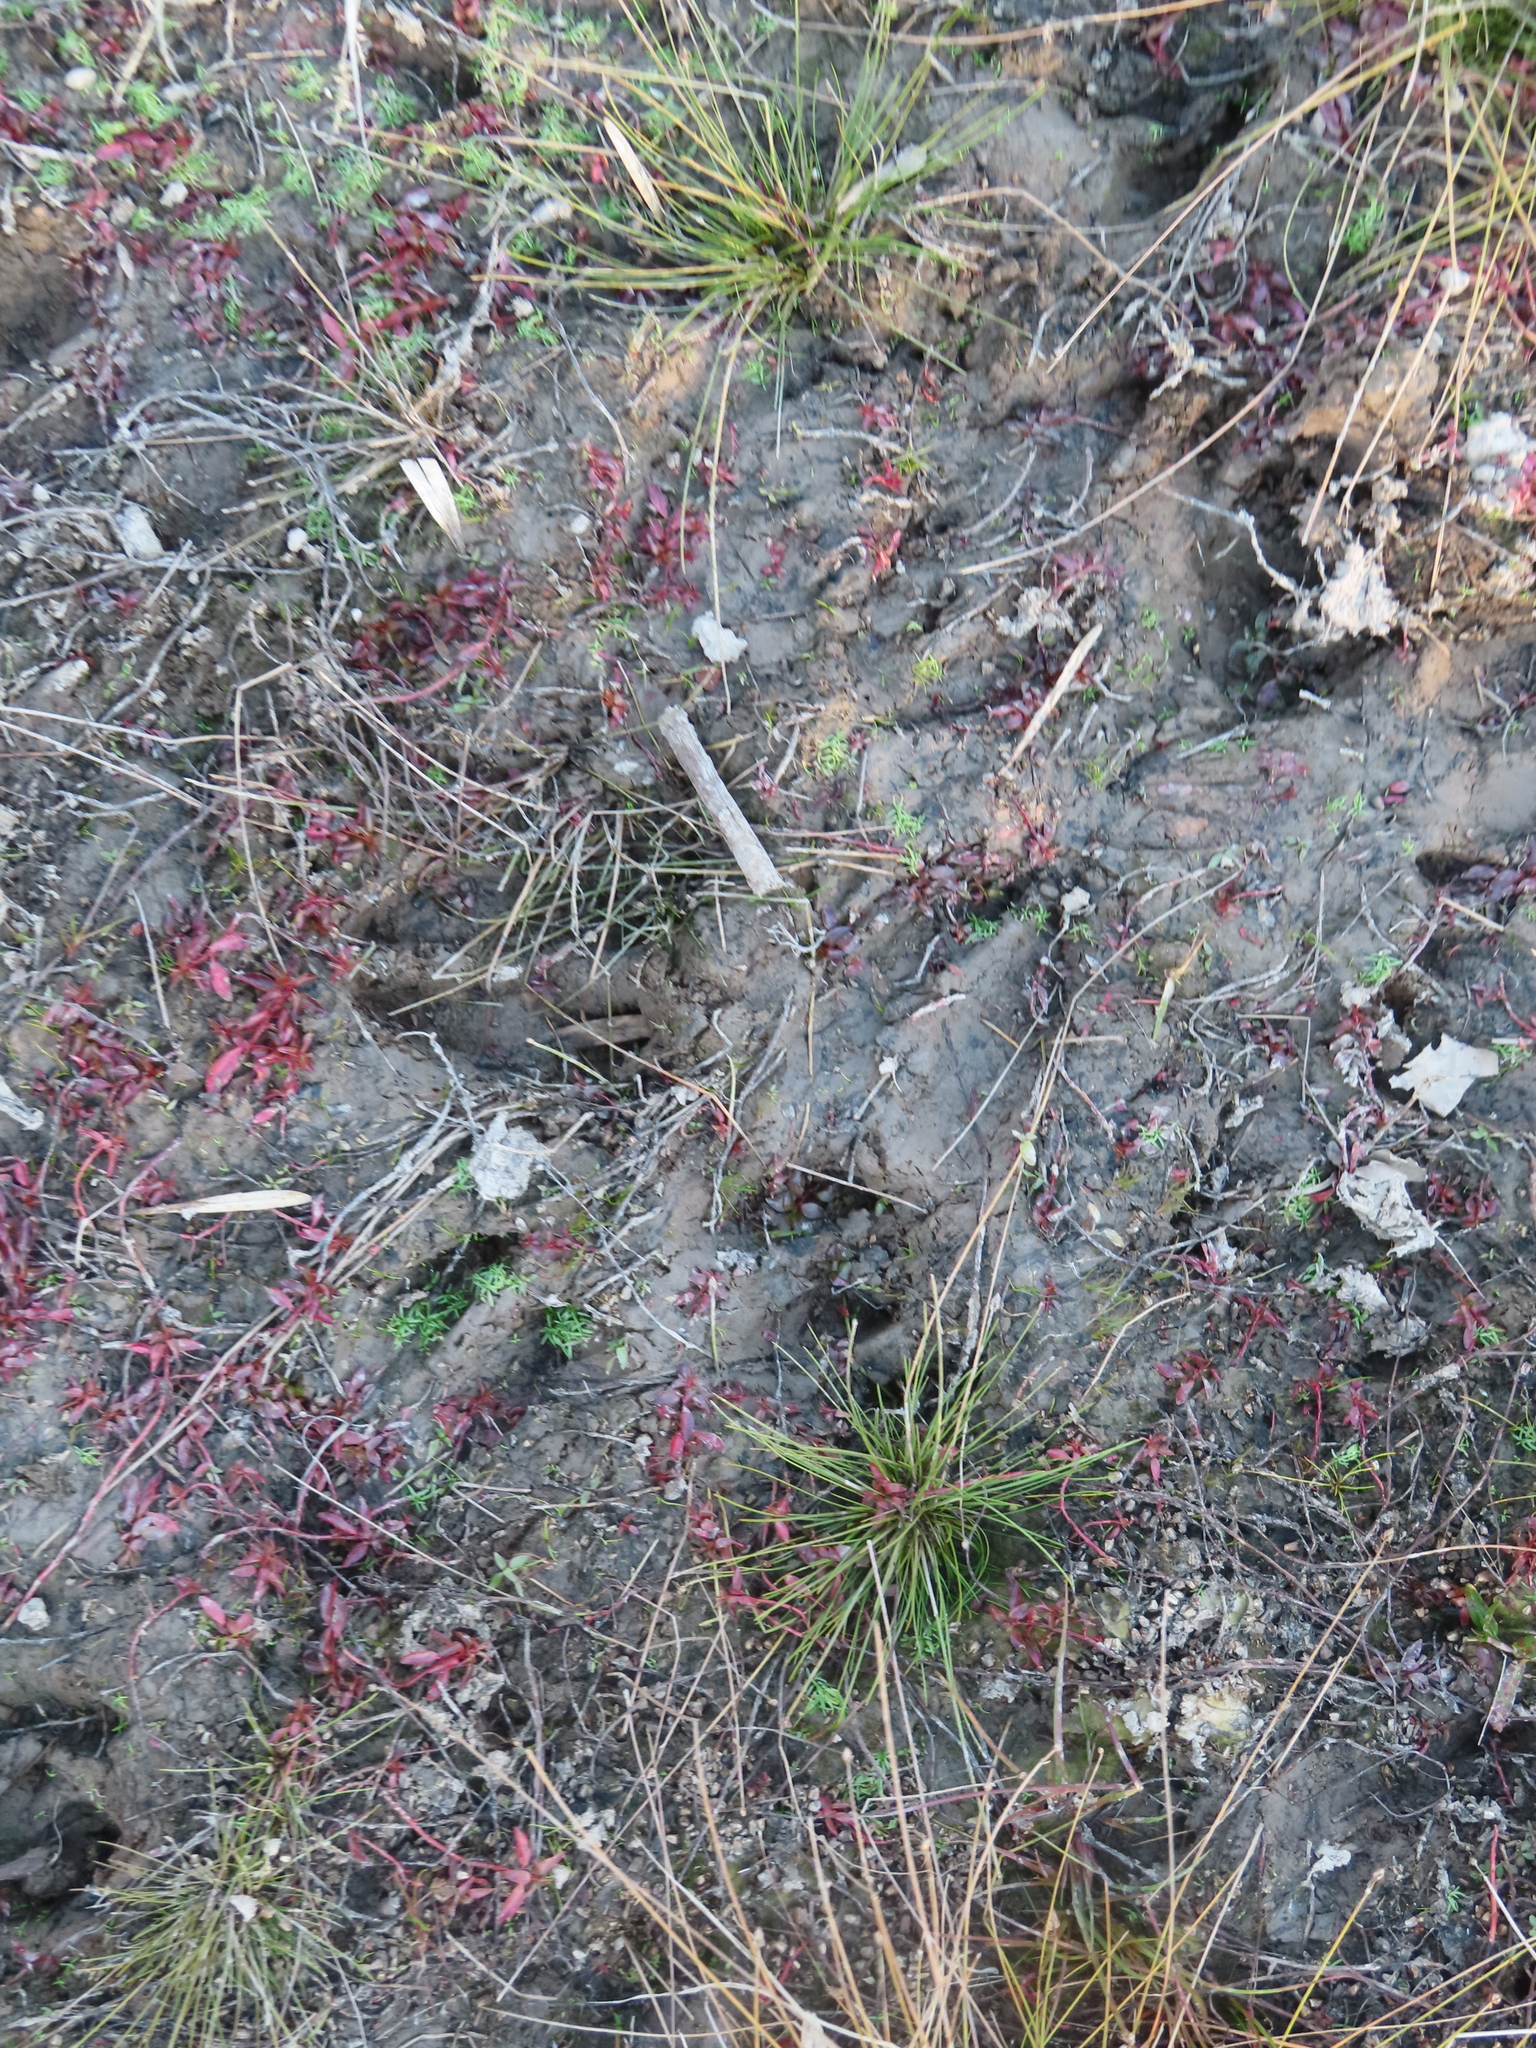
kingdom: Animalia
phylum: Chordata
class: Mammalia
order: Artiodactyla
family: Cervidae
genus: Odocoileus
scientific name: Odocoileus virginianus
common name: White-tailed deer
